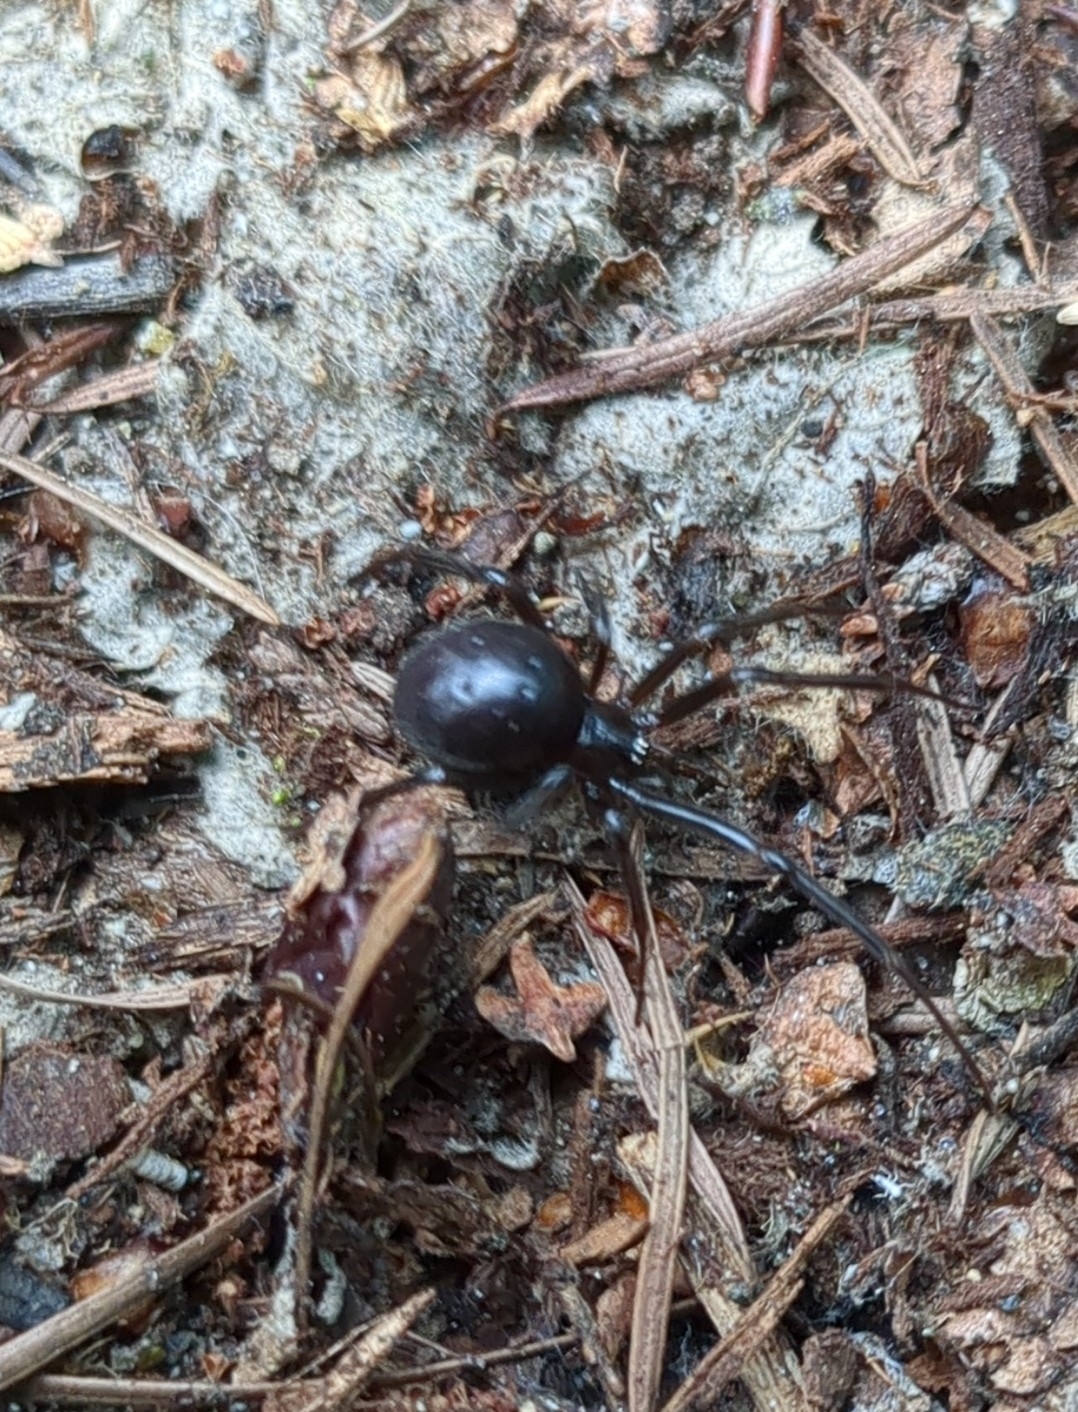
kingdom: Animalia
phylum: Arthropoda
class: Arachnida
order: Araneae
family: Theridiidae
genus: Steatoda
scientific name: Steatoda grossa
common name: False black widow
